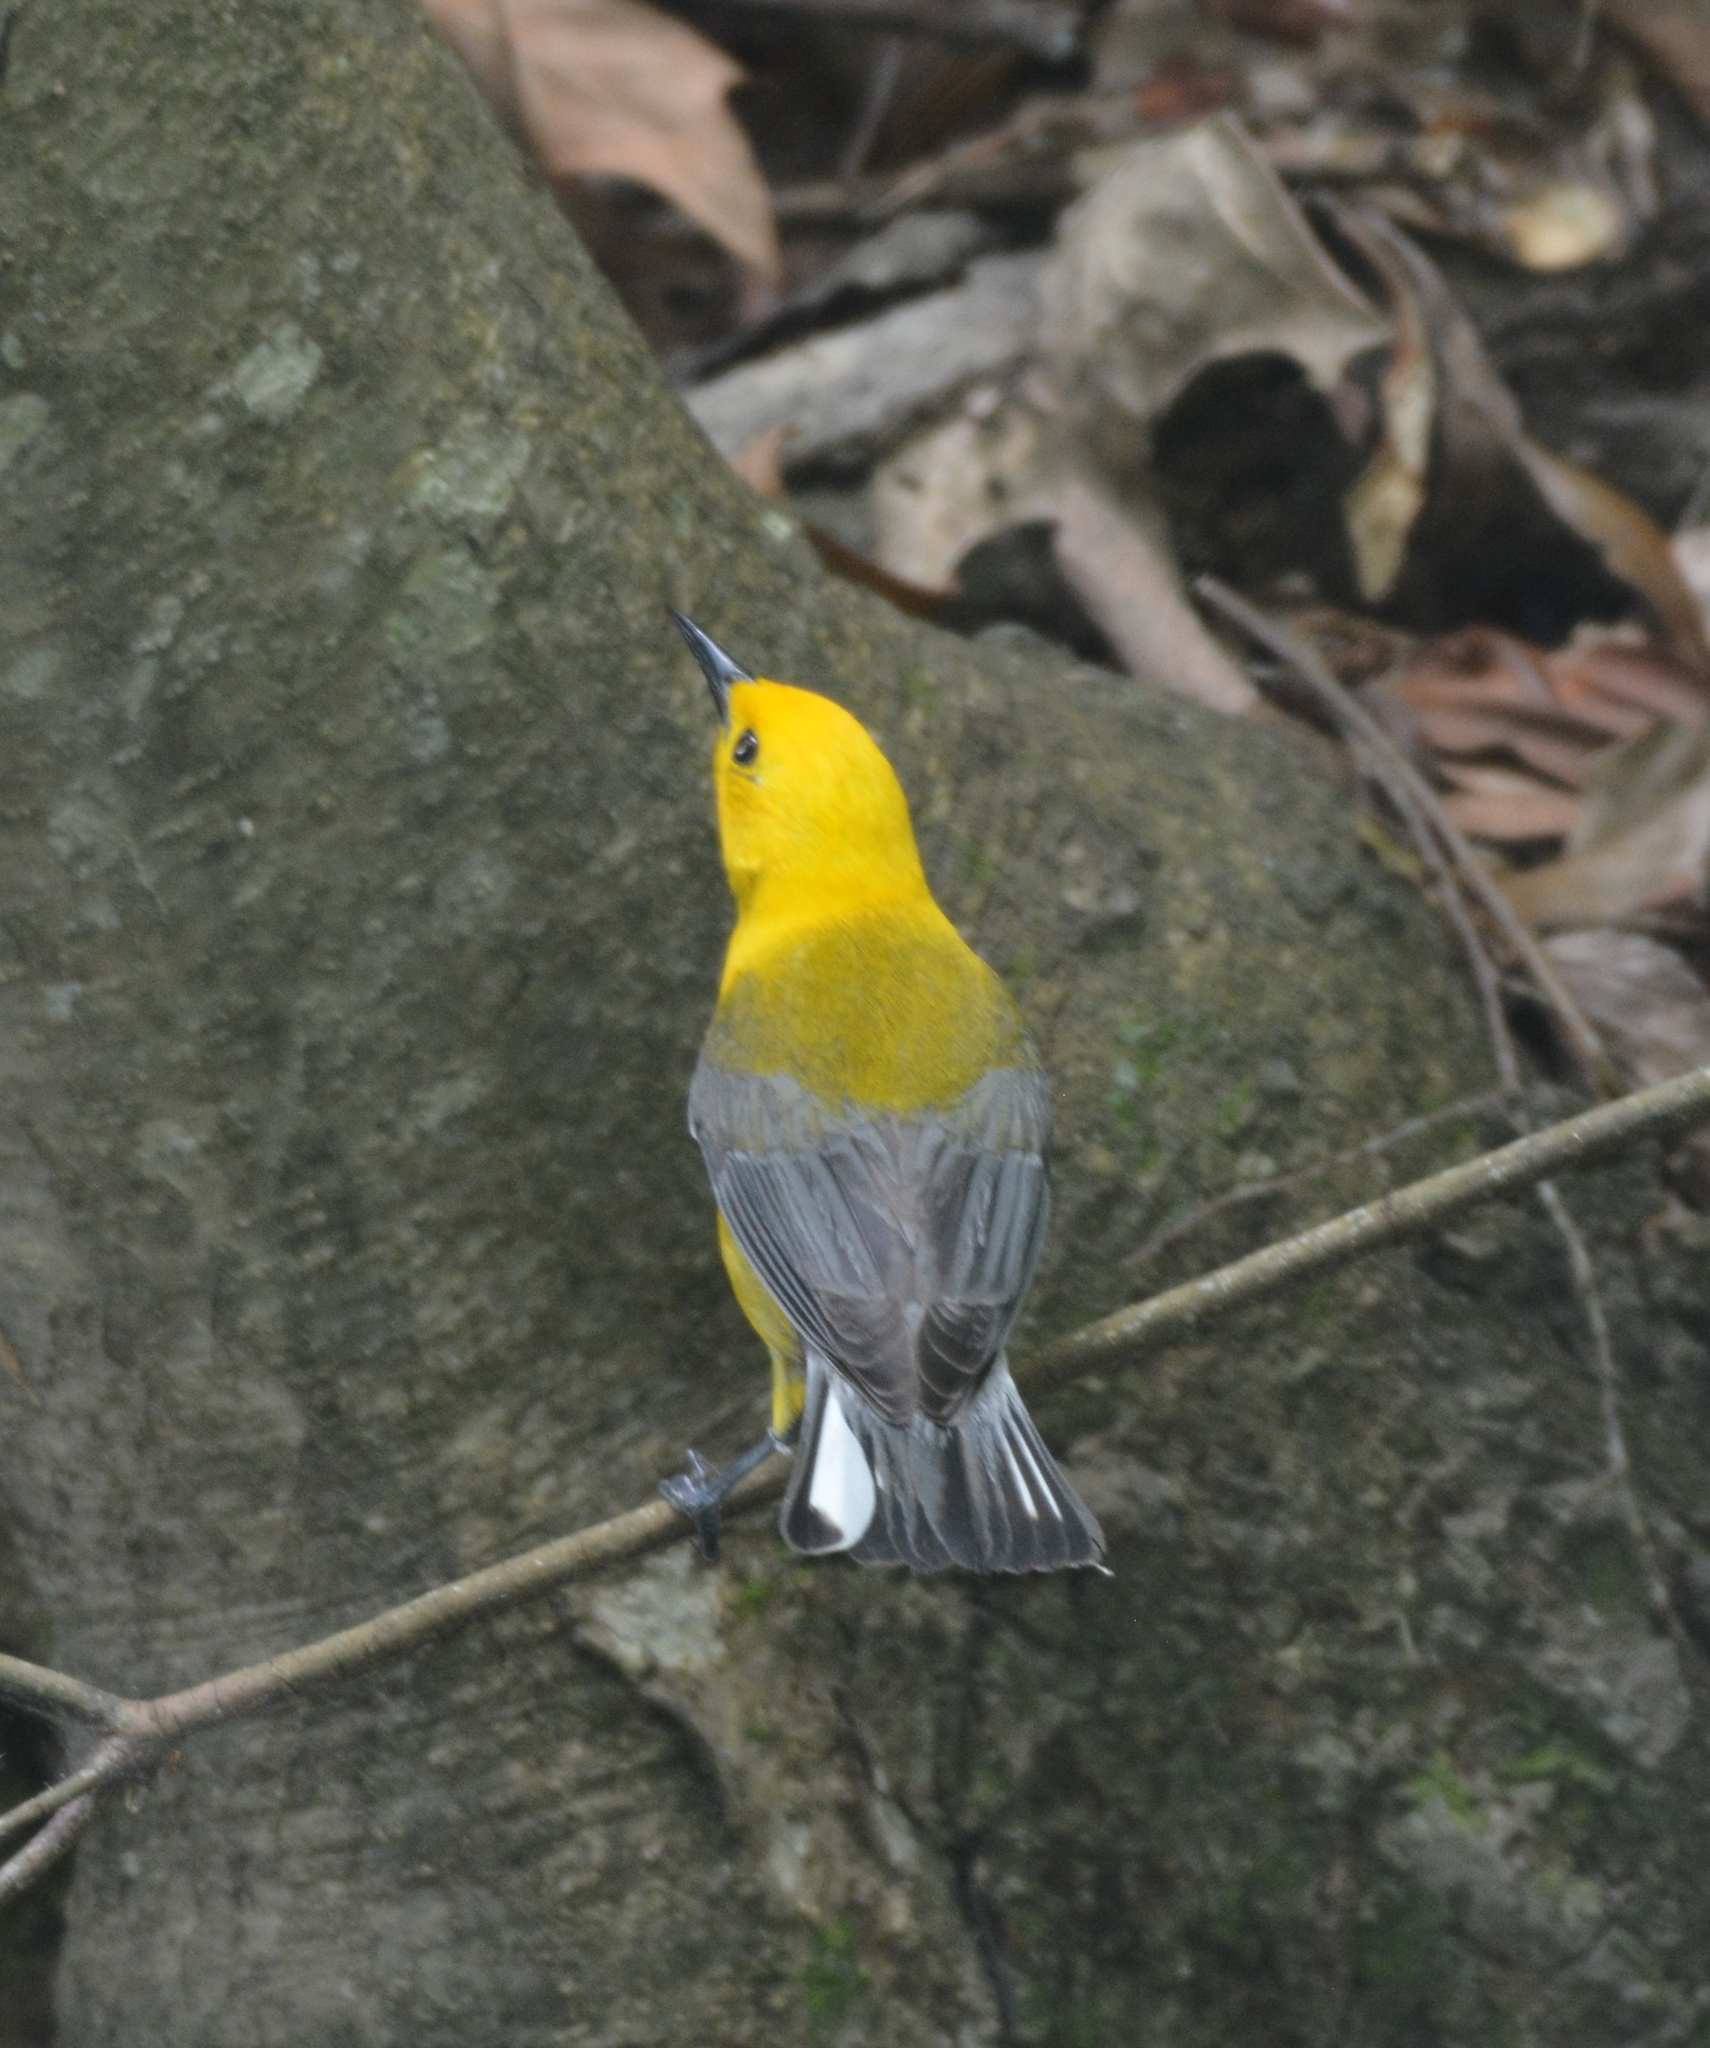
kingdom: Animalia
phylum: Chordata
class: Aves
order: Passeriformes
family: Parulidae
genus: Protonotaria
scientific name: Protonotaria citrea
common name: Prothonotary warbler
